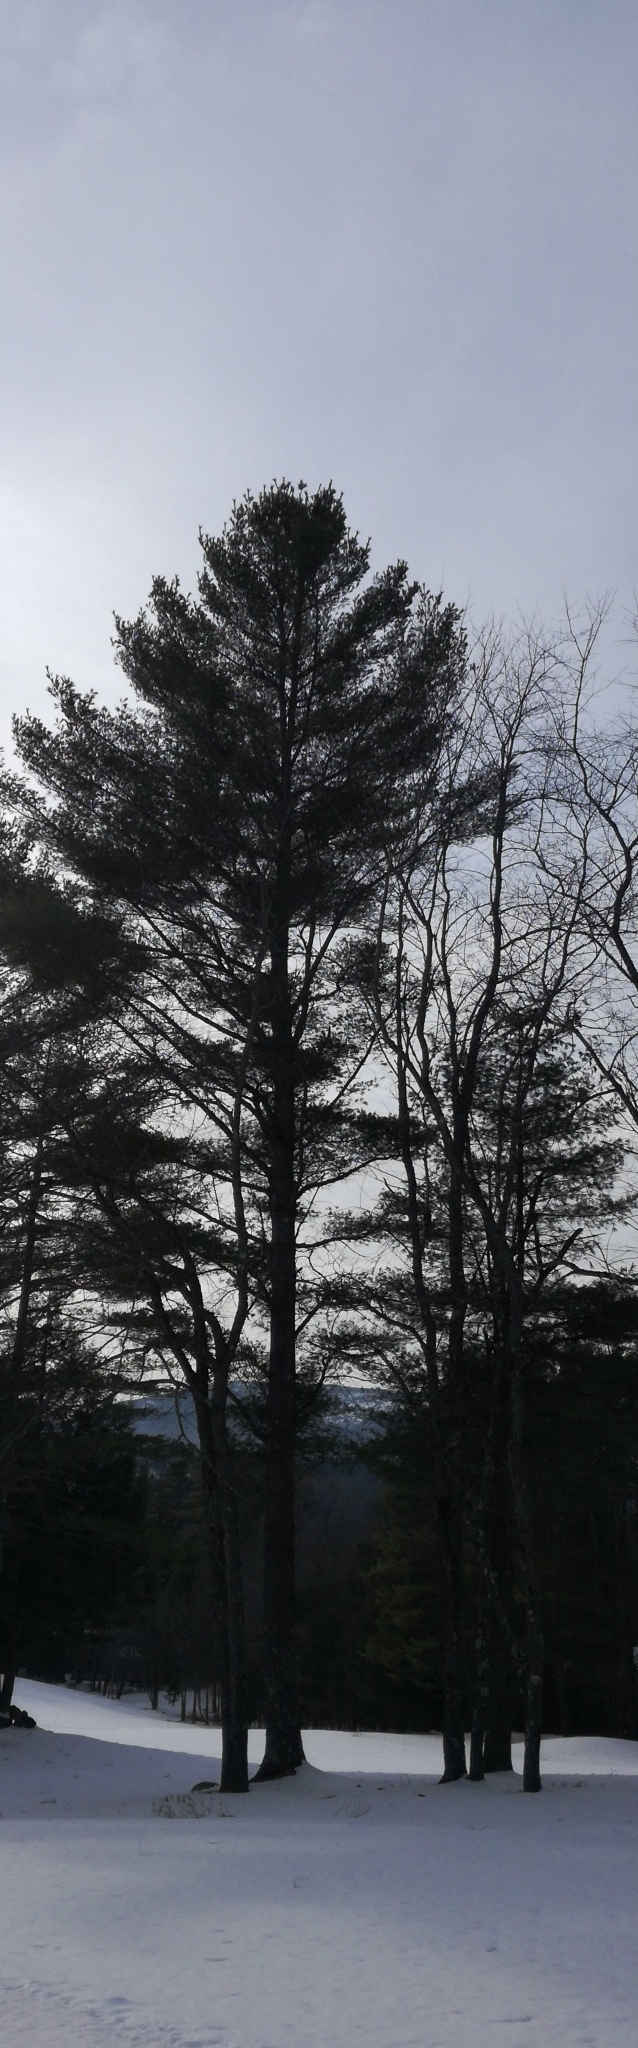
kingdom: Plantae
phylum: Tracheophyta
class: Pinopsida
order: Pinales
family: Pinaceae
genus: Pinus
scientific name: Pinus strobus
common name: Weymouth pine
